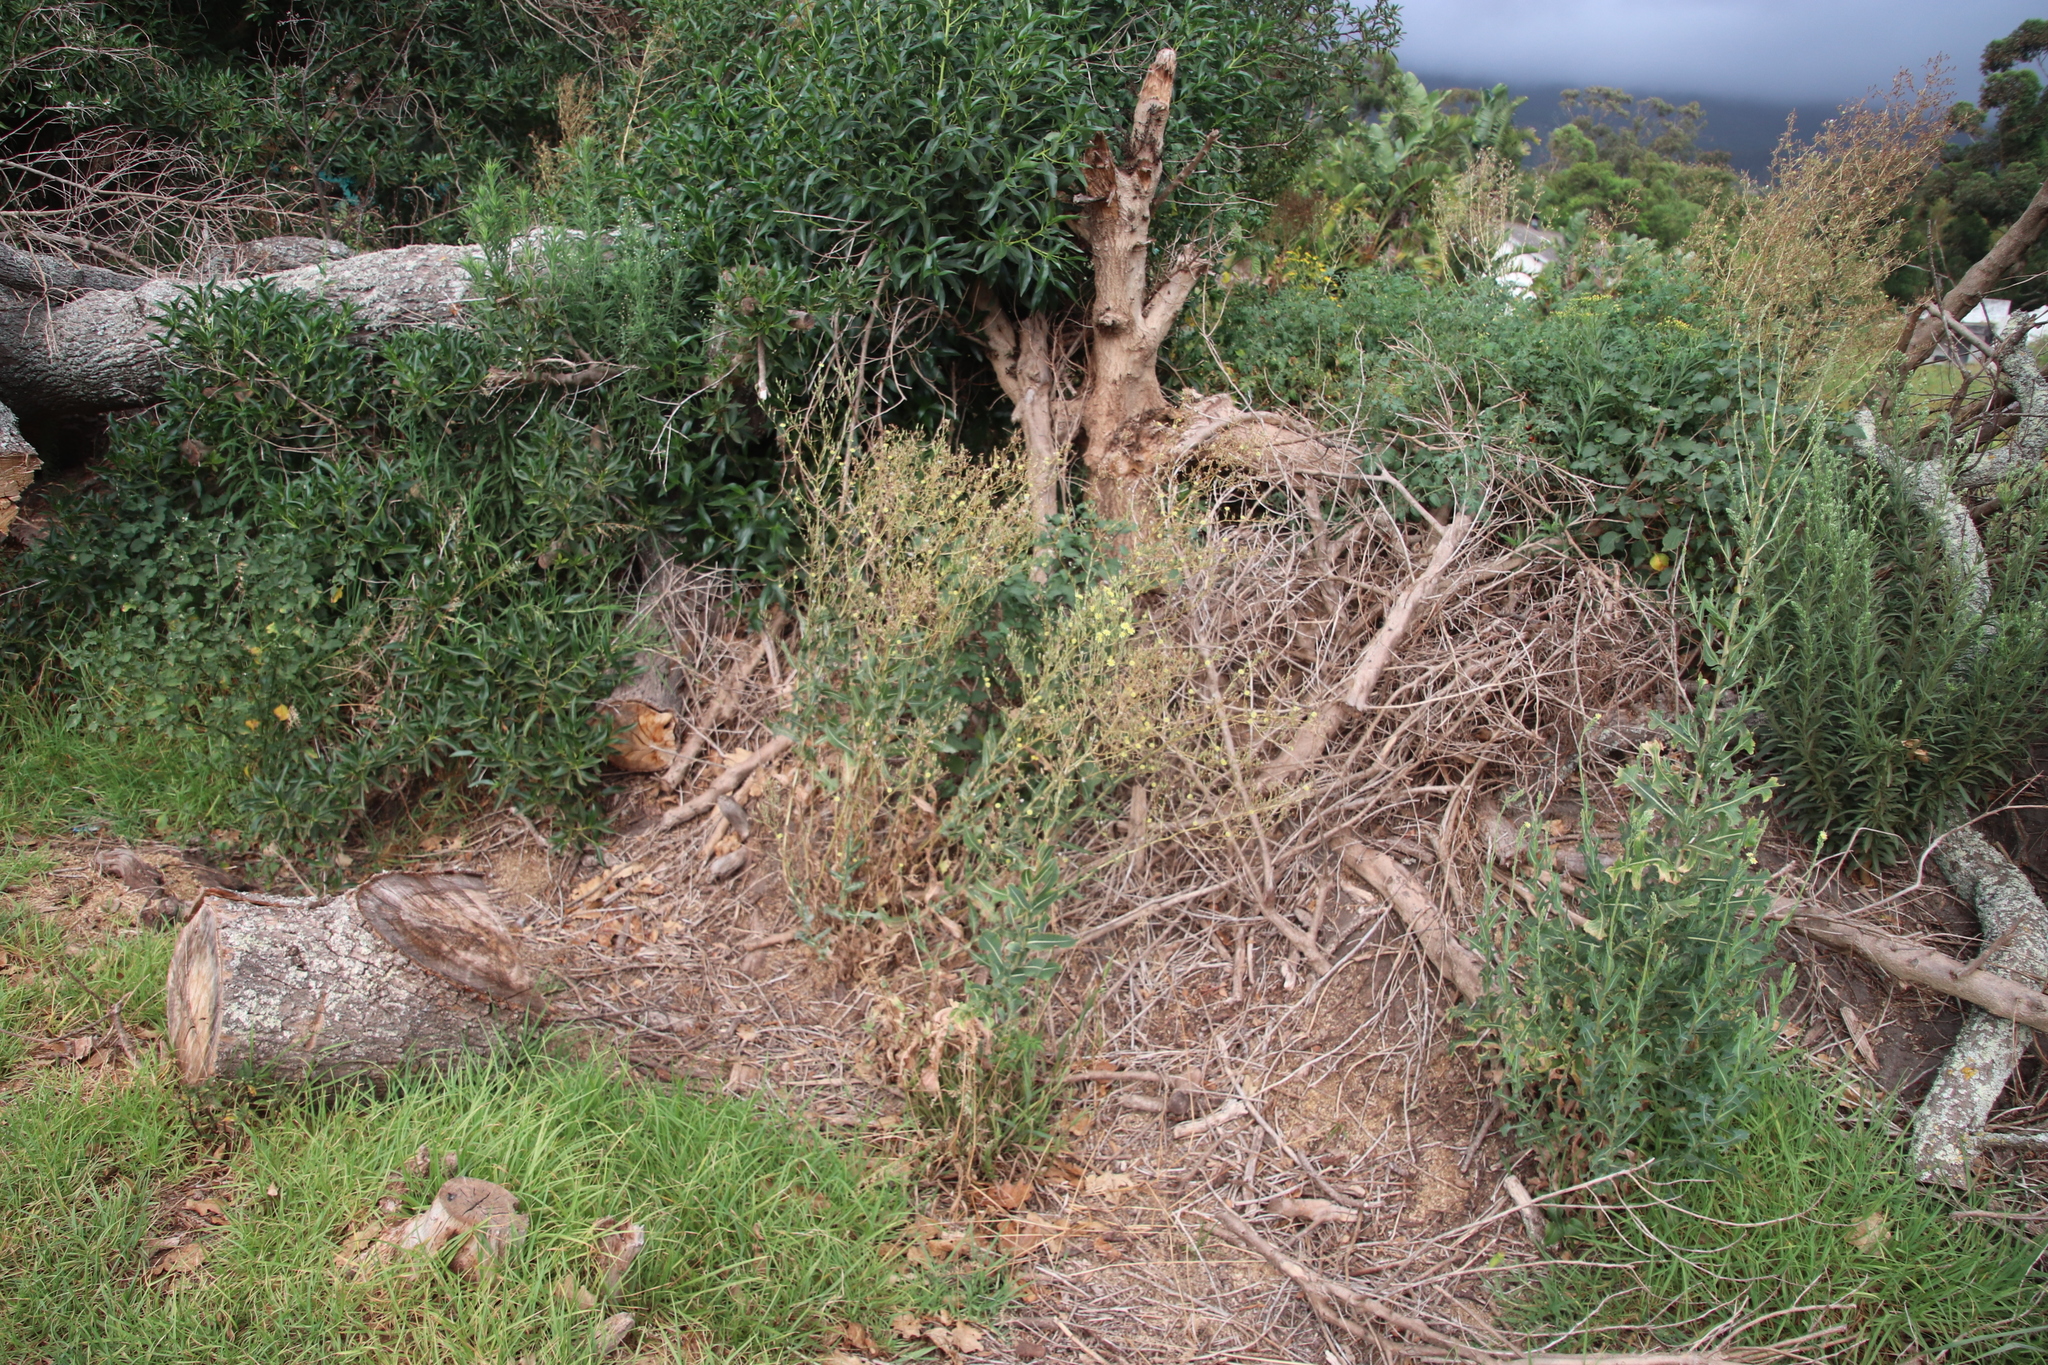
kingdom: Plantae
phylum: Tracheophyta
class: Magnoliopsida
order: Asterales
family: Asteraceae
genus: Lactuca
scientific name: Lactuca serriola
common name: Prickly lettuce
